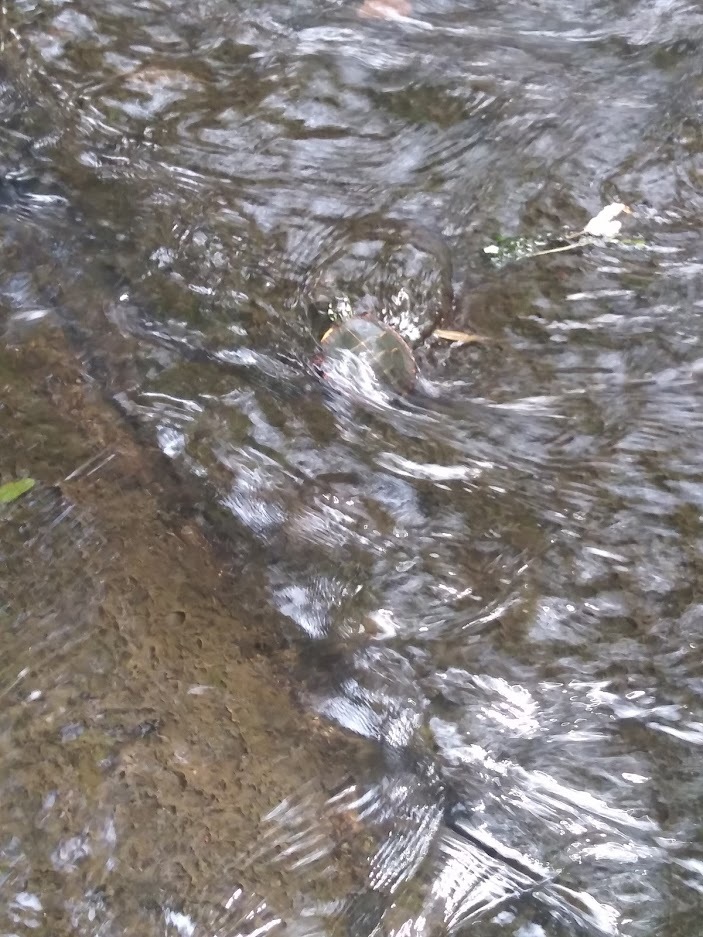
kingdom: Animalia
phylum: Chordata
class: Testudines
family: Emydidae
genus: Chrysemys
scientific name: Chrysemys picta
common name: Painted turtle
